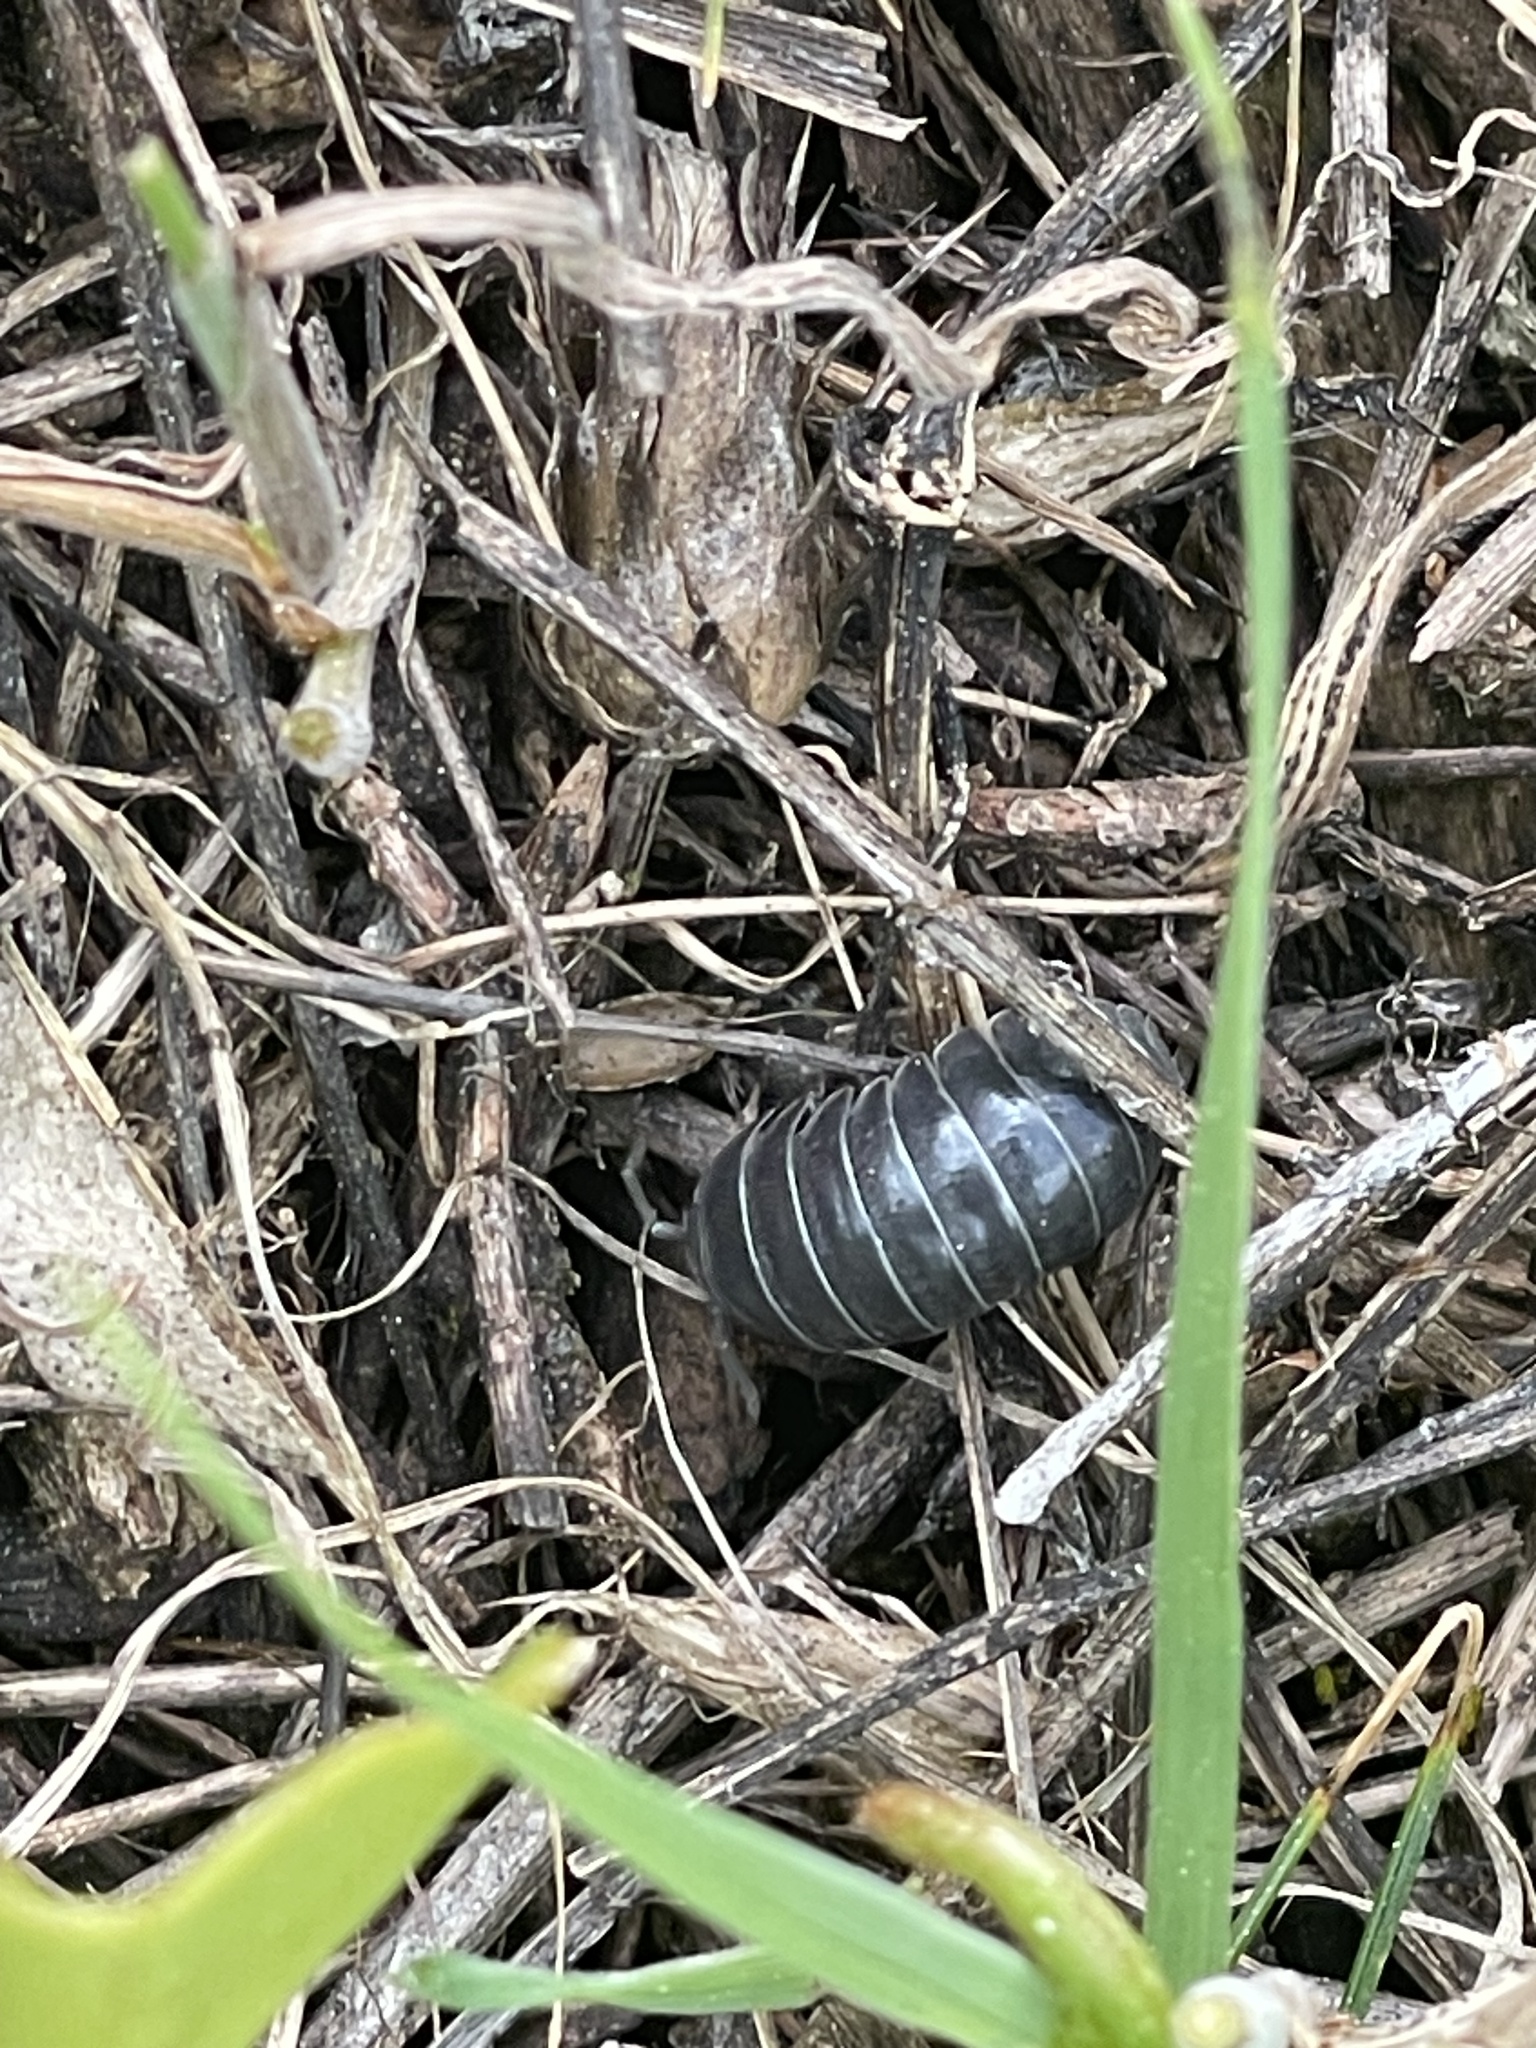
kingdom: Animalia
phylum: Arthropoda
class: Malacostraca
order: Isopoda
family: Armadillidiidae
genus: Armadillidium
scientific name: Armadillidium vulgare
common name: Common pill woodlouse
